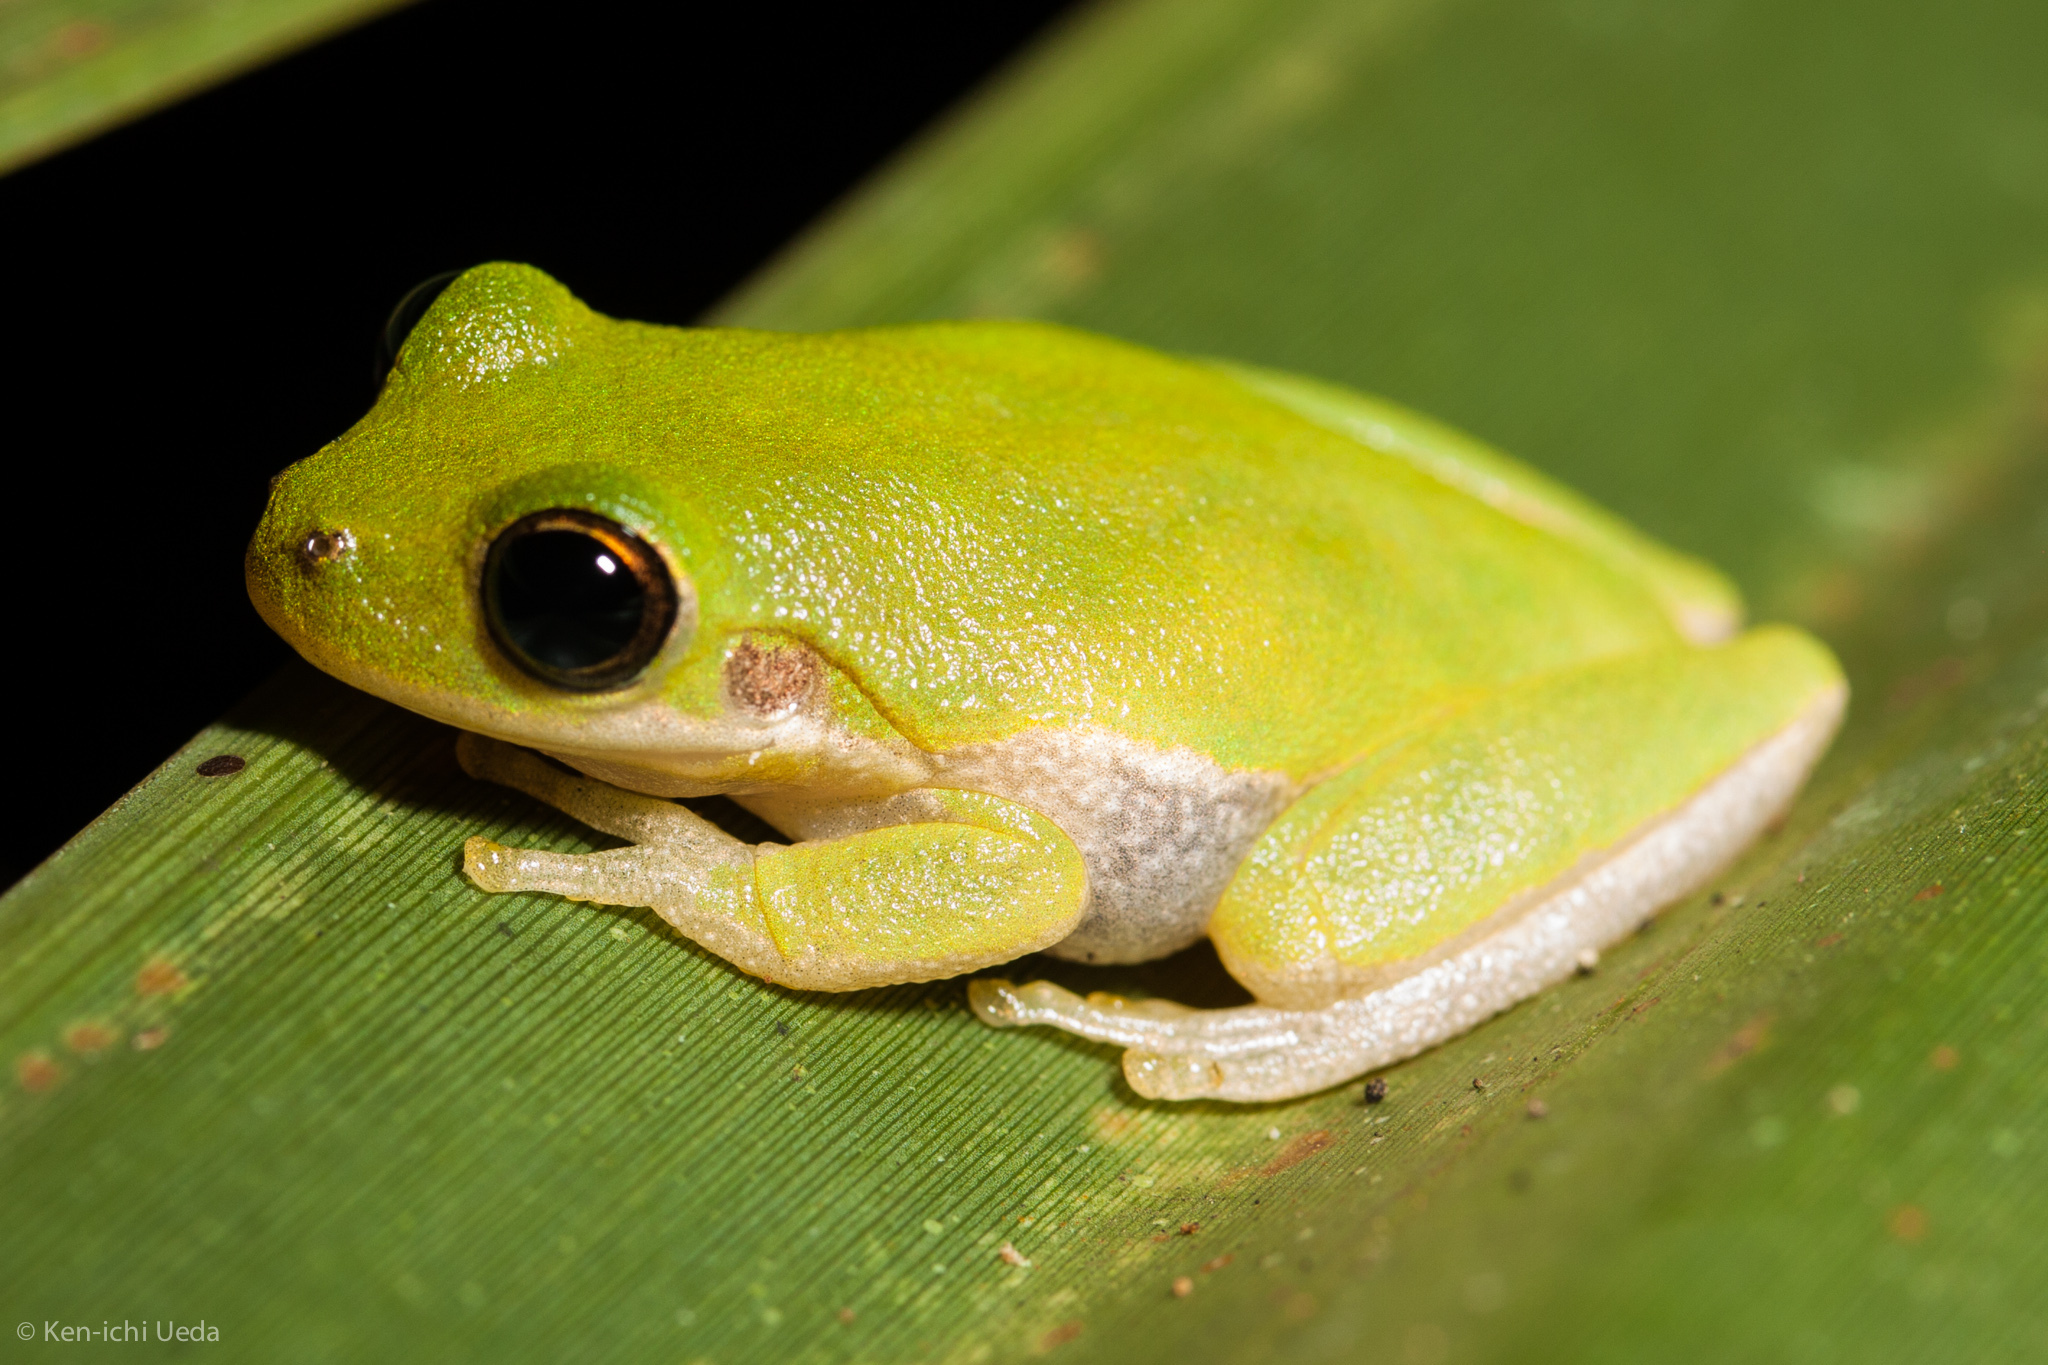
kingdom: Animalia
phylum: Chordata
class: Amphibia
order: Anura
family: Hylidae
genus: Dryophytes
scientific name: Dryophytes squirellus
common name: Squirrel treefrog
